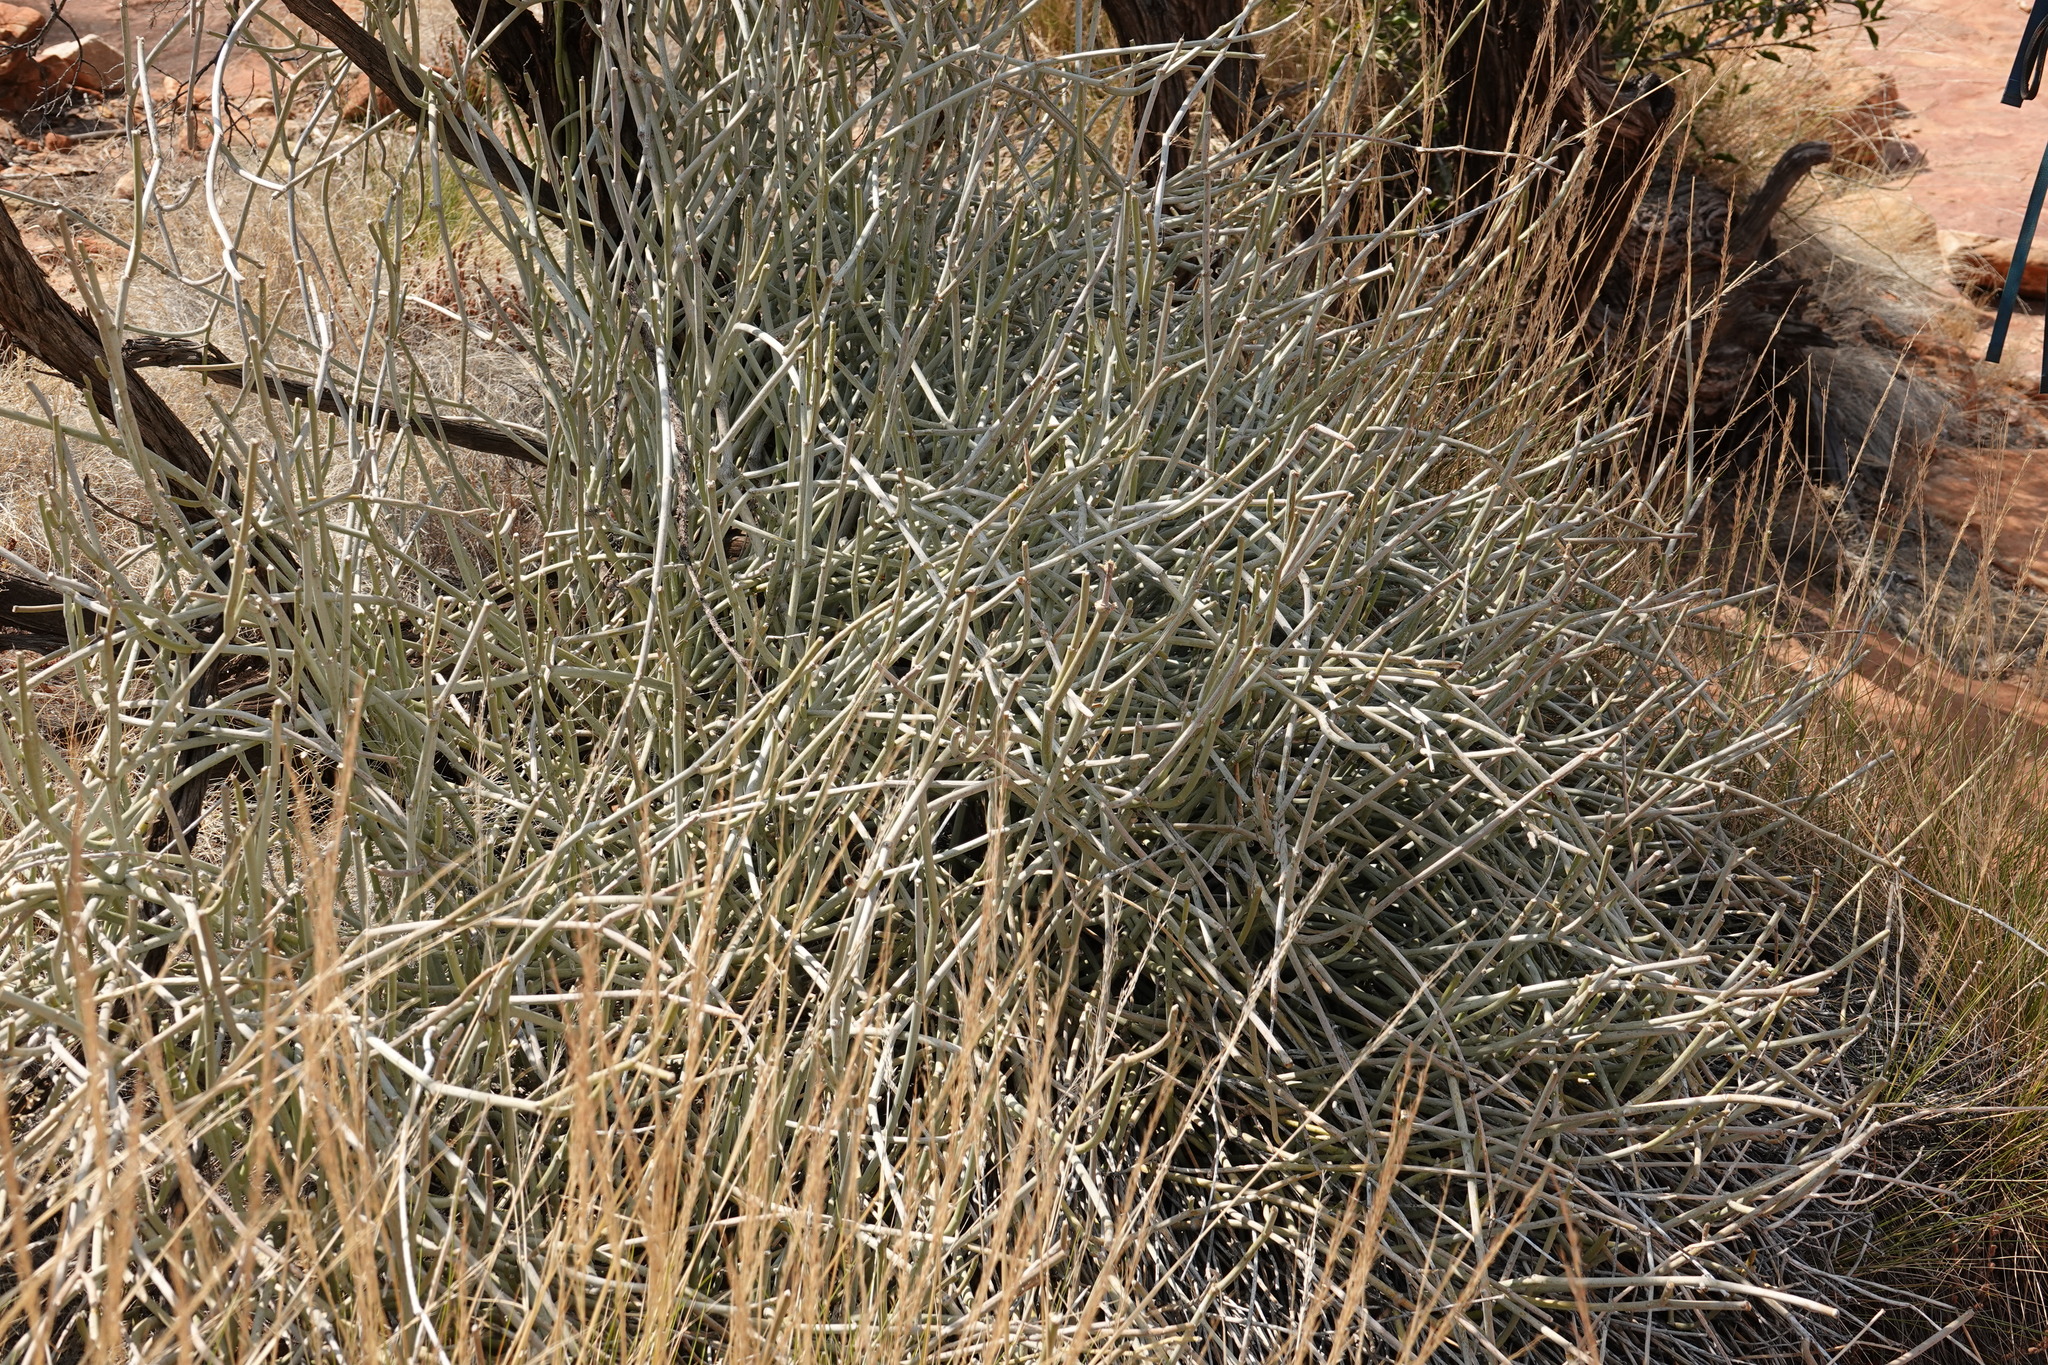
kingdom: Plantae
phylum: Tracheophyta
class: Magnoliopsida
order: Gentianales
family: Apocynaceae
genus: Cynanchum
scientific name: Cynanchum viminale
